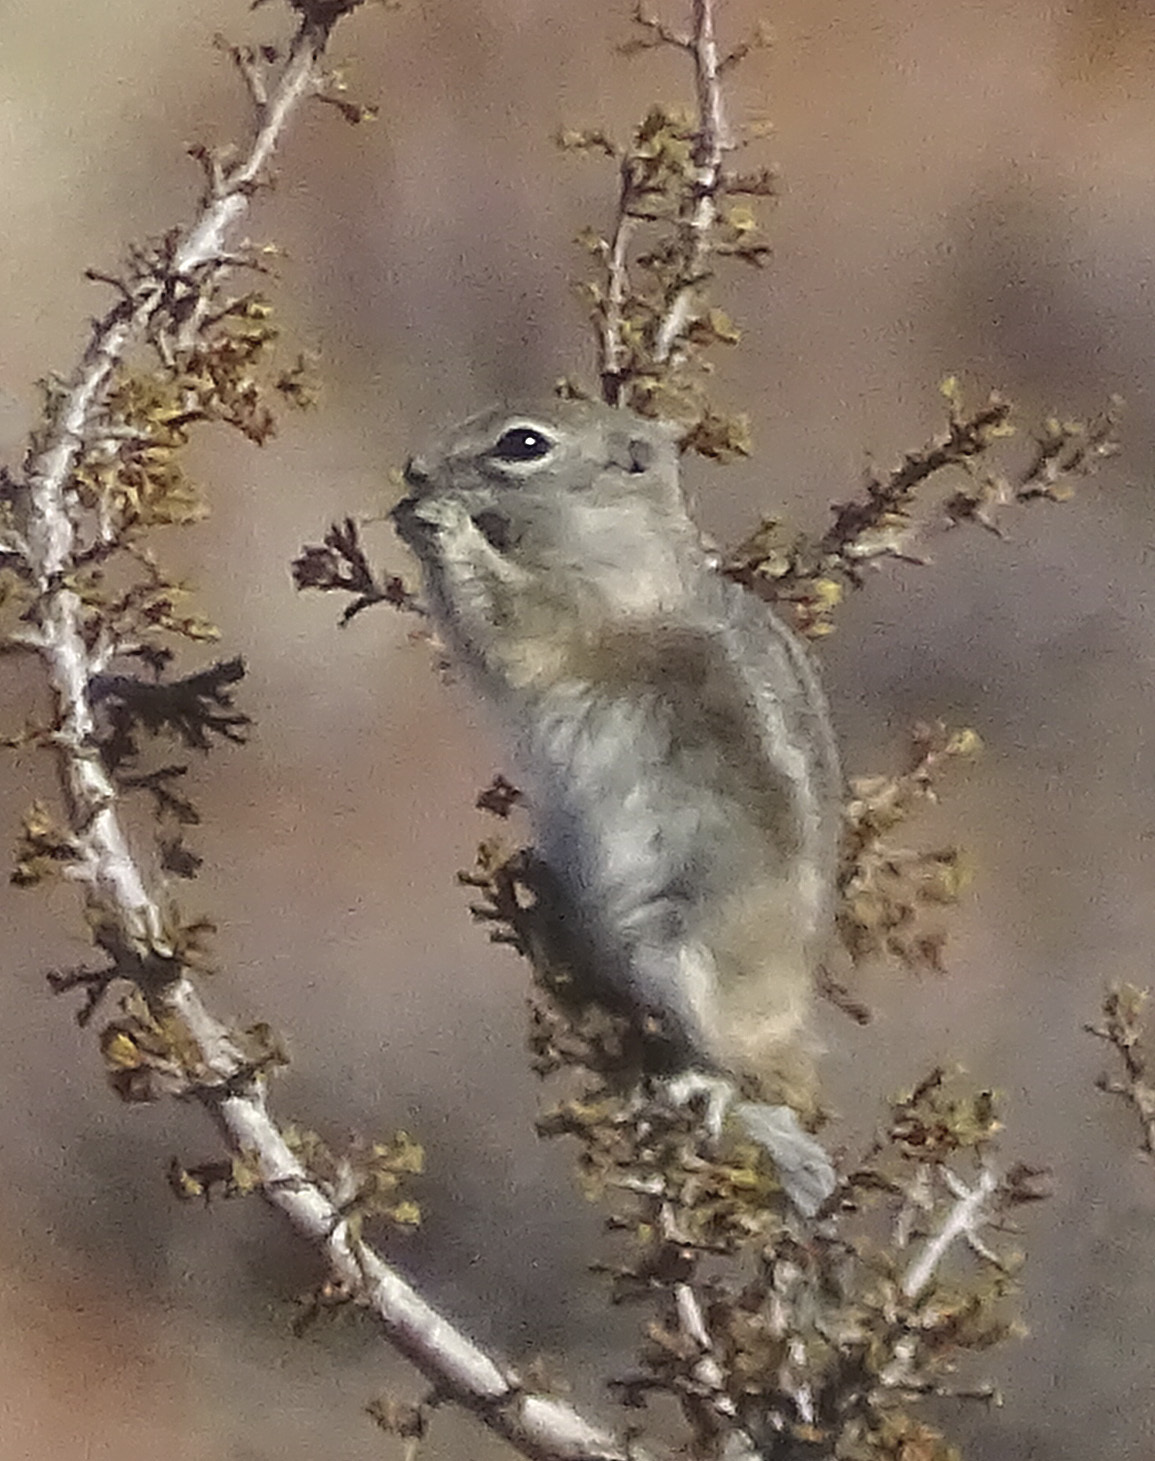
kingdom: Animalia
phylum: Chordata
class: Mammalia
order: Rodentia
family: Sciuridae
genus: Ammospermophilus
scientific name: Ammospermophilus leucurus
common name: White-tailed antelope squirrel
